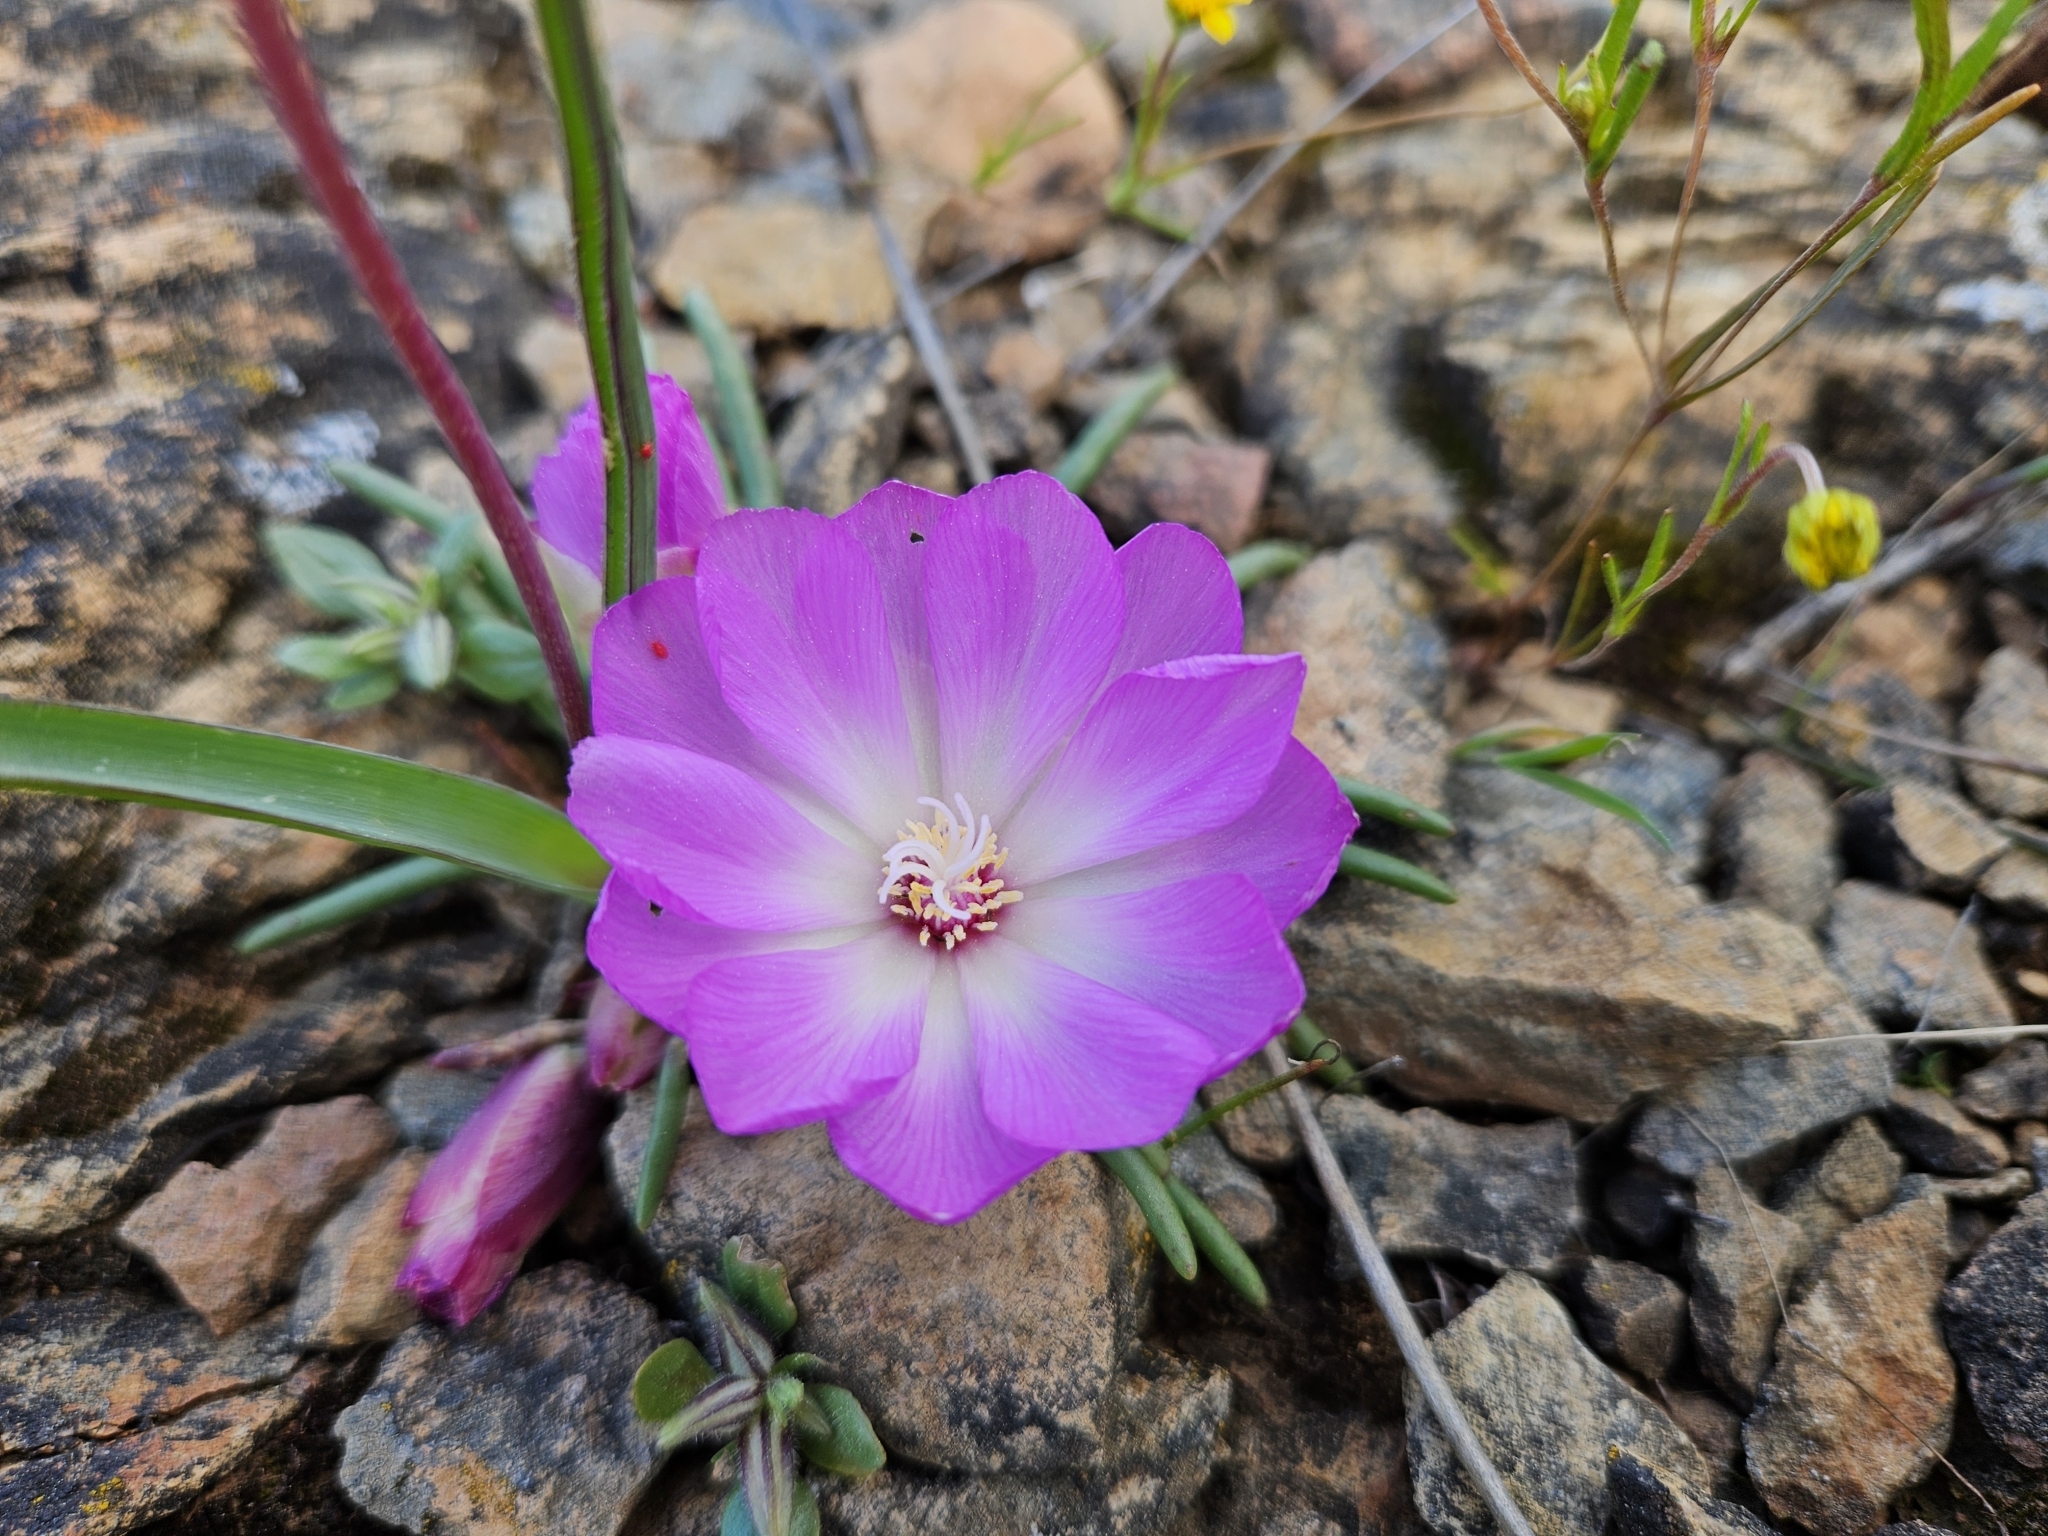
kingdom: Plantae
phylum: Tracheophyta
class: Magnoliopsida
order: Caryophyllales
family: Montiaceae
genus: Lewisia
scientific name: Lewisia rediviva
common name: Bitter-root
